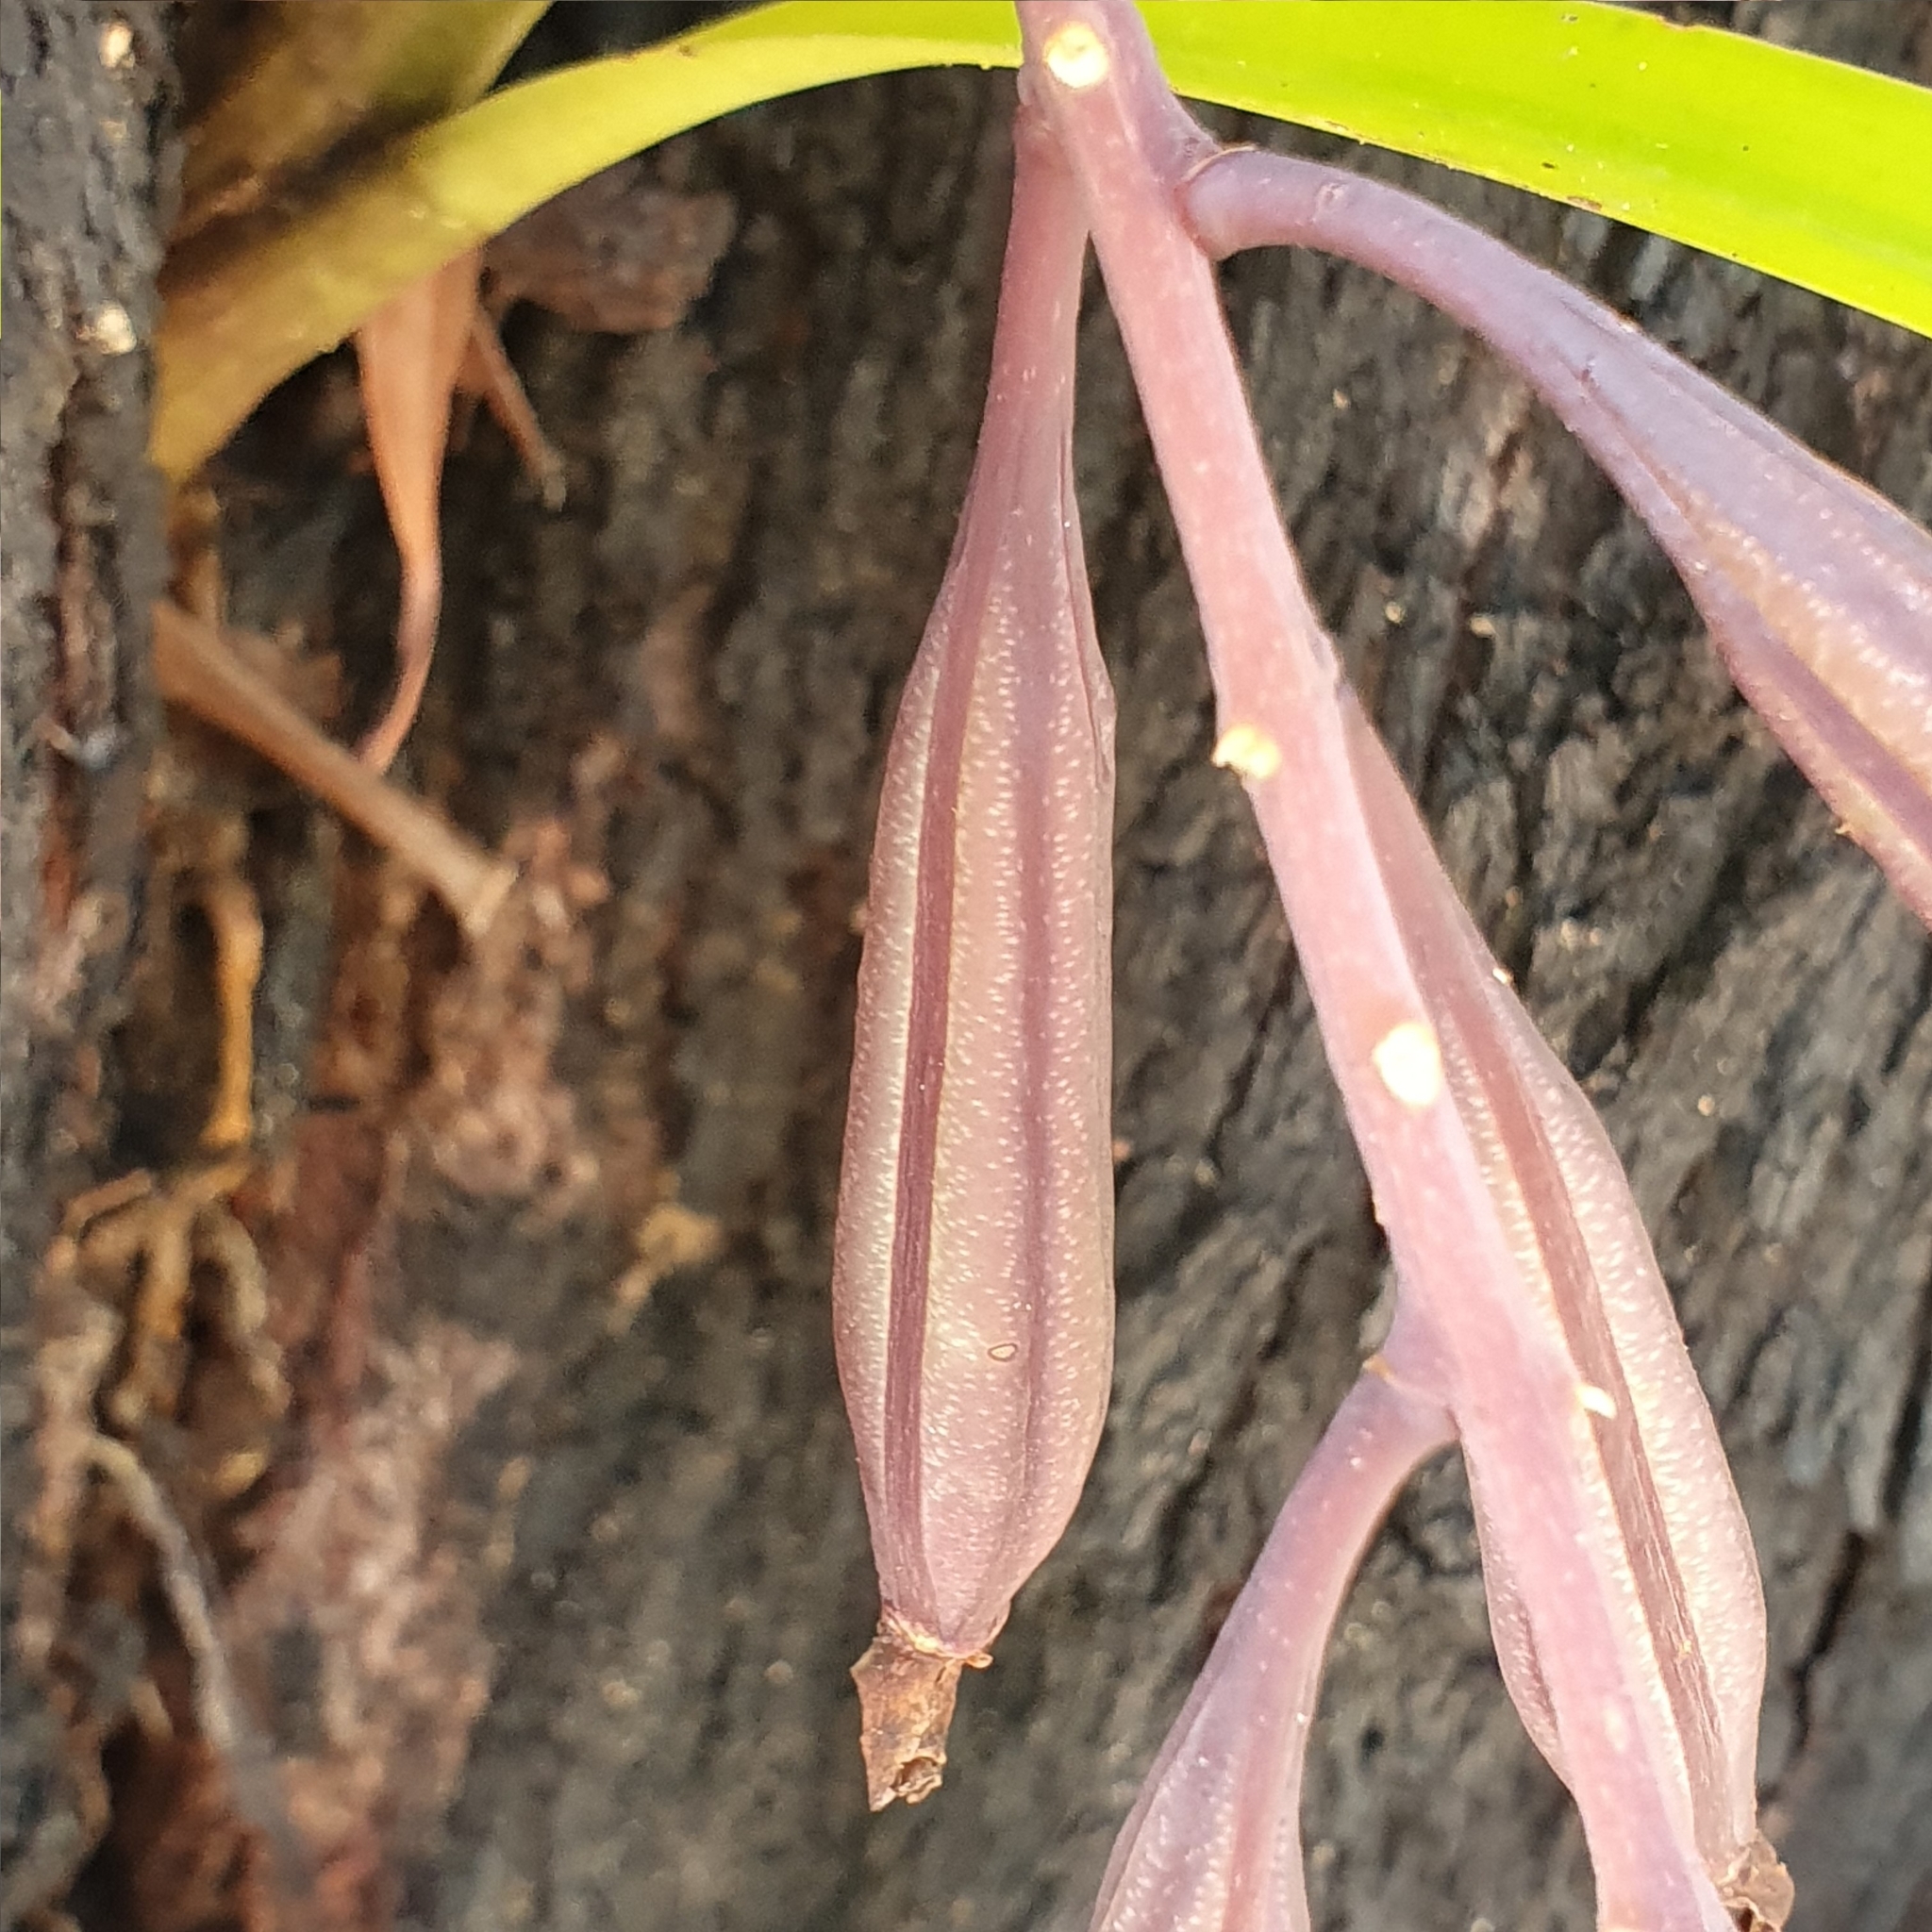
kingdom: Plantae
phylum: Tracheophyta
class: Liliopsida
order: Asparagales
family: Orchidaceae
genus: Cymbidium
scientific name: Cymbidium suave
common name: Snake orchid
